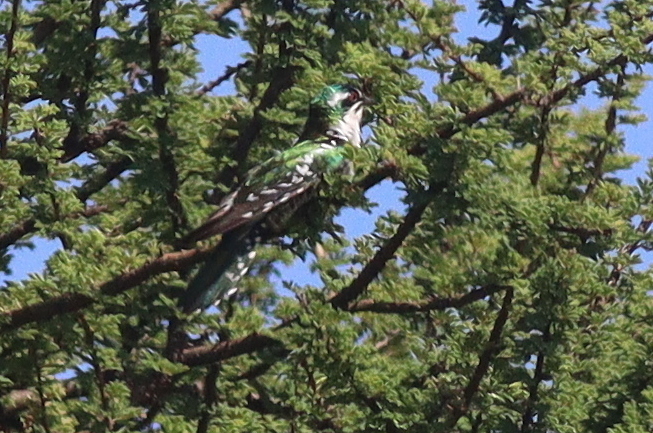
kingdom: Animalia
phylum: Chordata
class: Aves
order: Cuculiformes
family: Cuculidae
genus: Chrysococcyx
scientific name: Chrysococcyx caprius
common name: Diederik cuckoo
